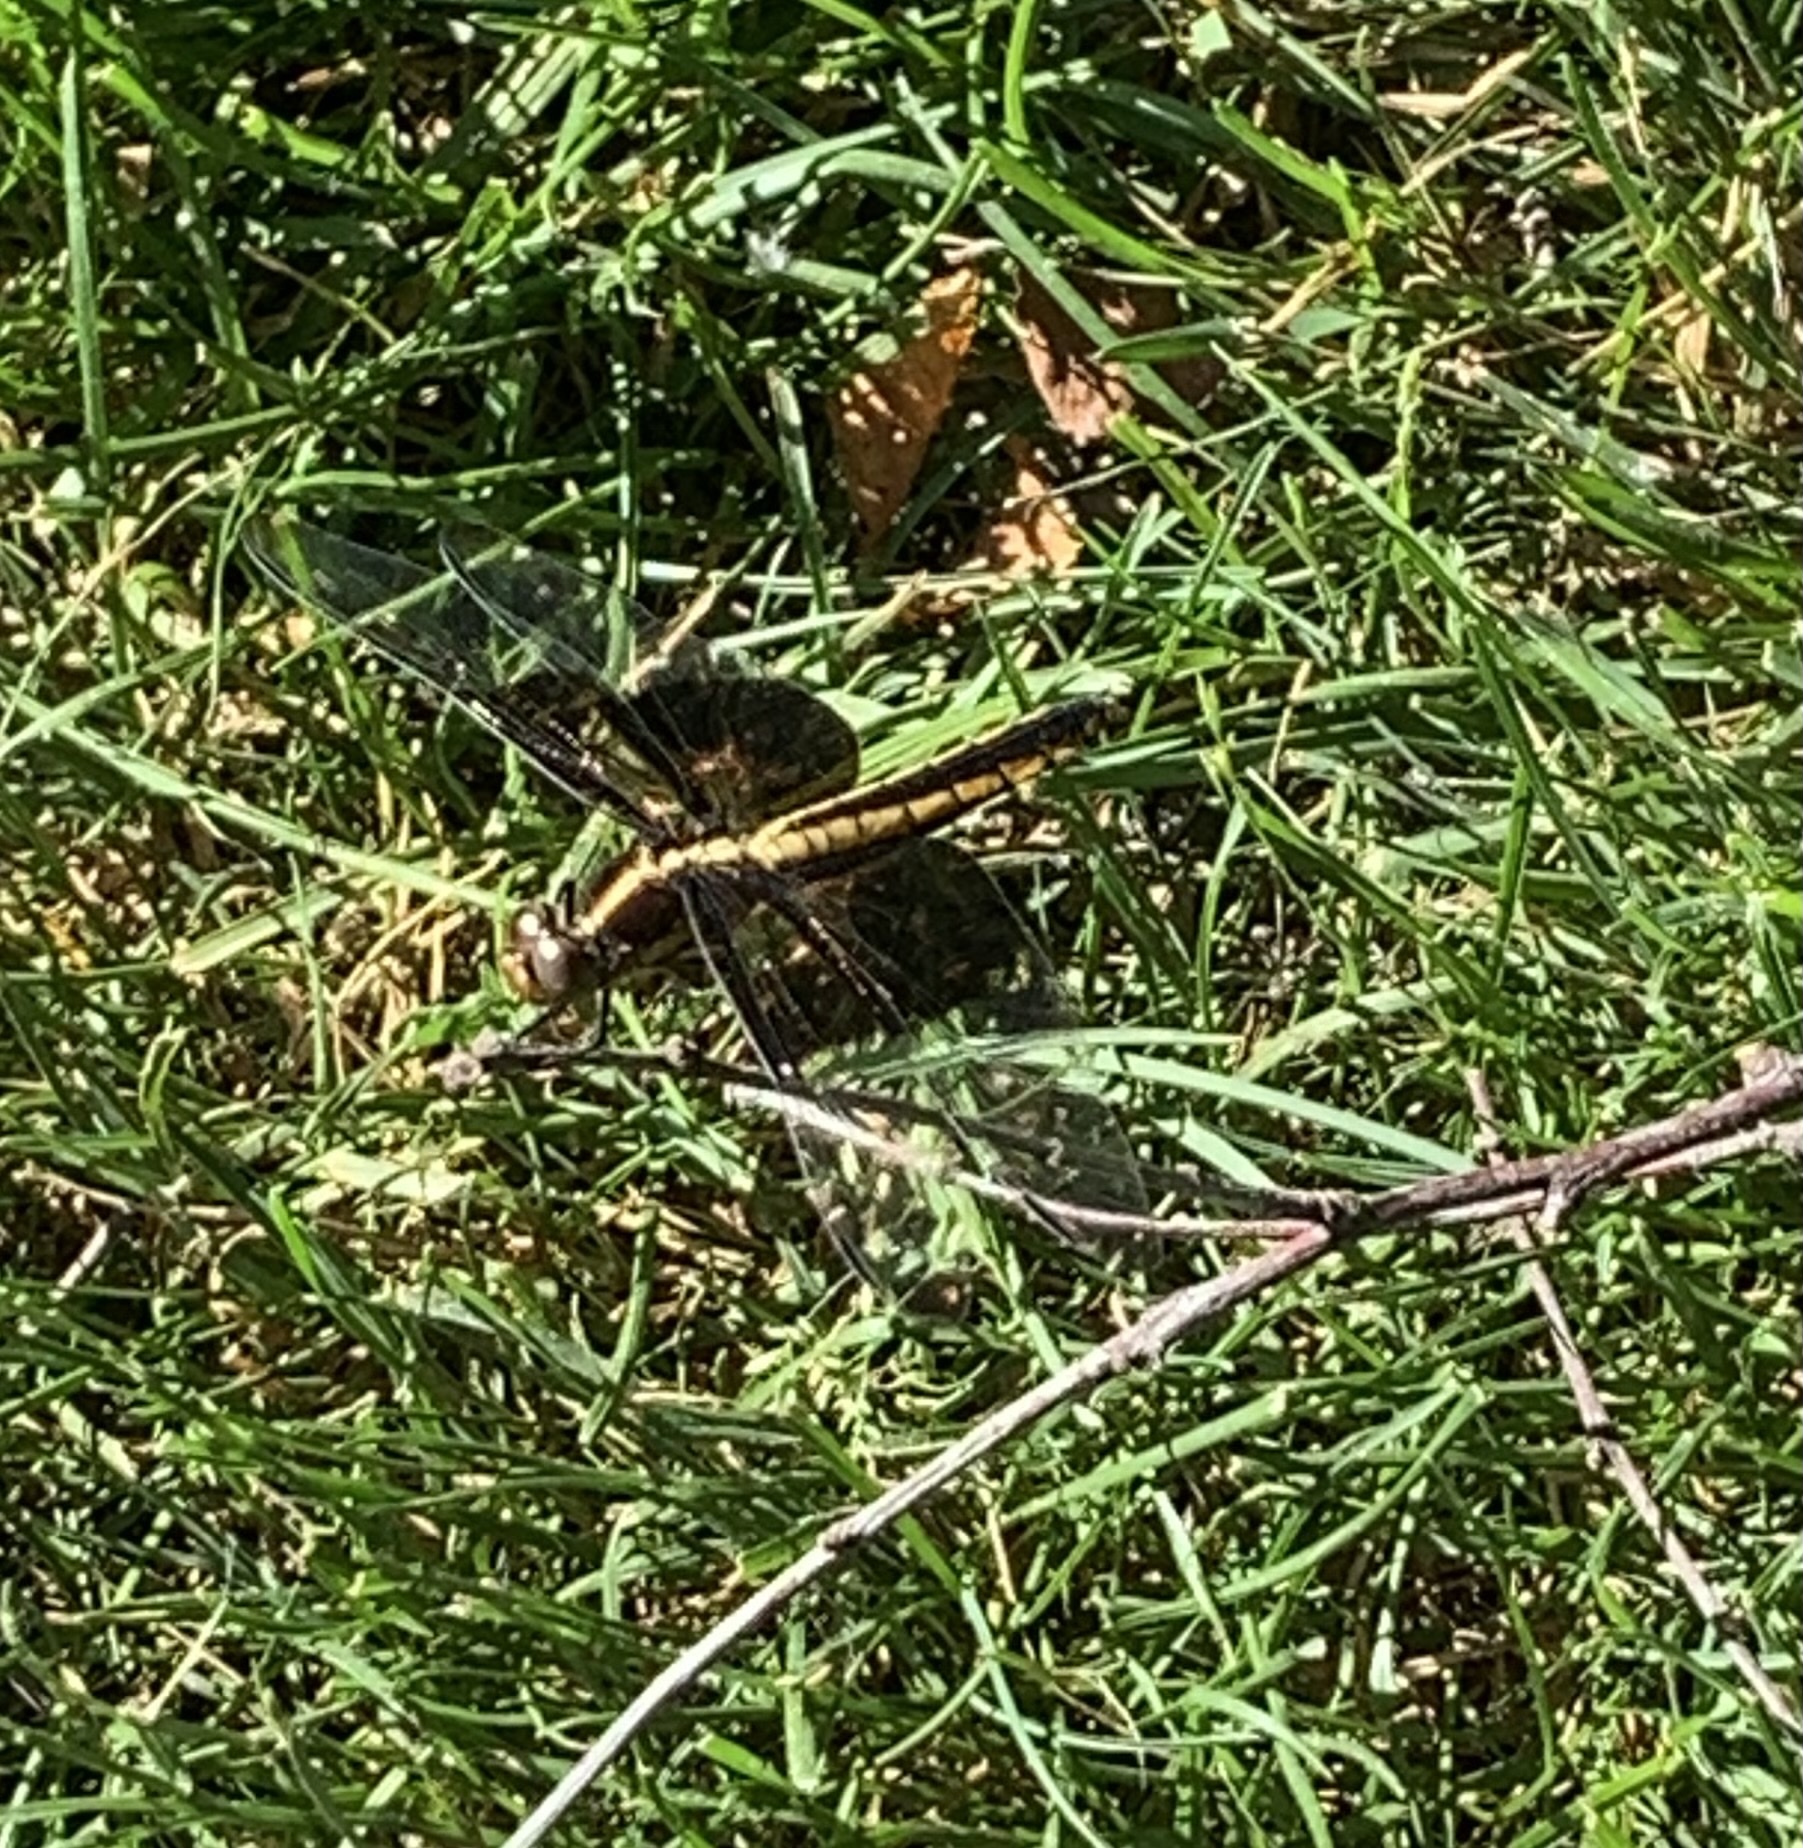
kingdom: Animalia
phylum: Arthropoda
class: Insecta
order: Odonata
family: Libellulidae
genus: Libellula
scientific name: Libellula luctuosa
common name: Widow skimmer
